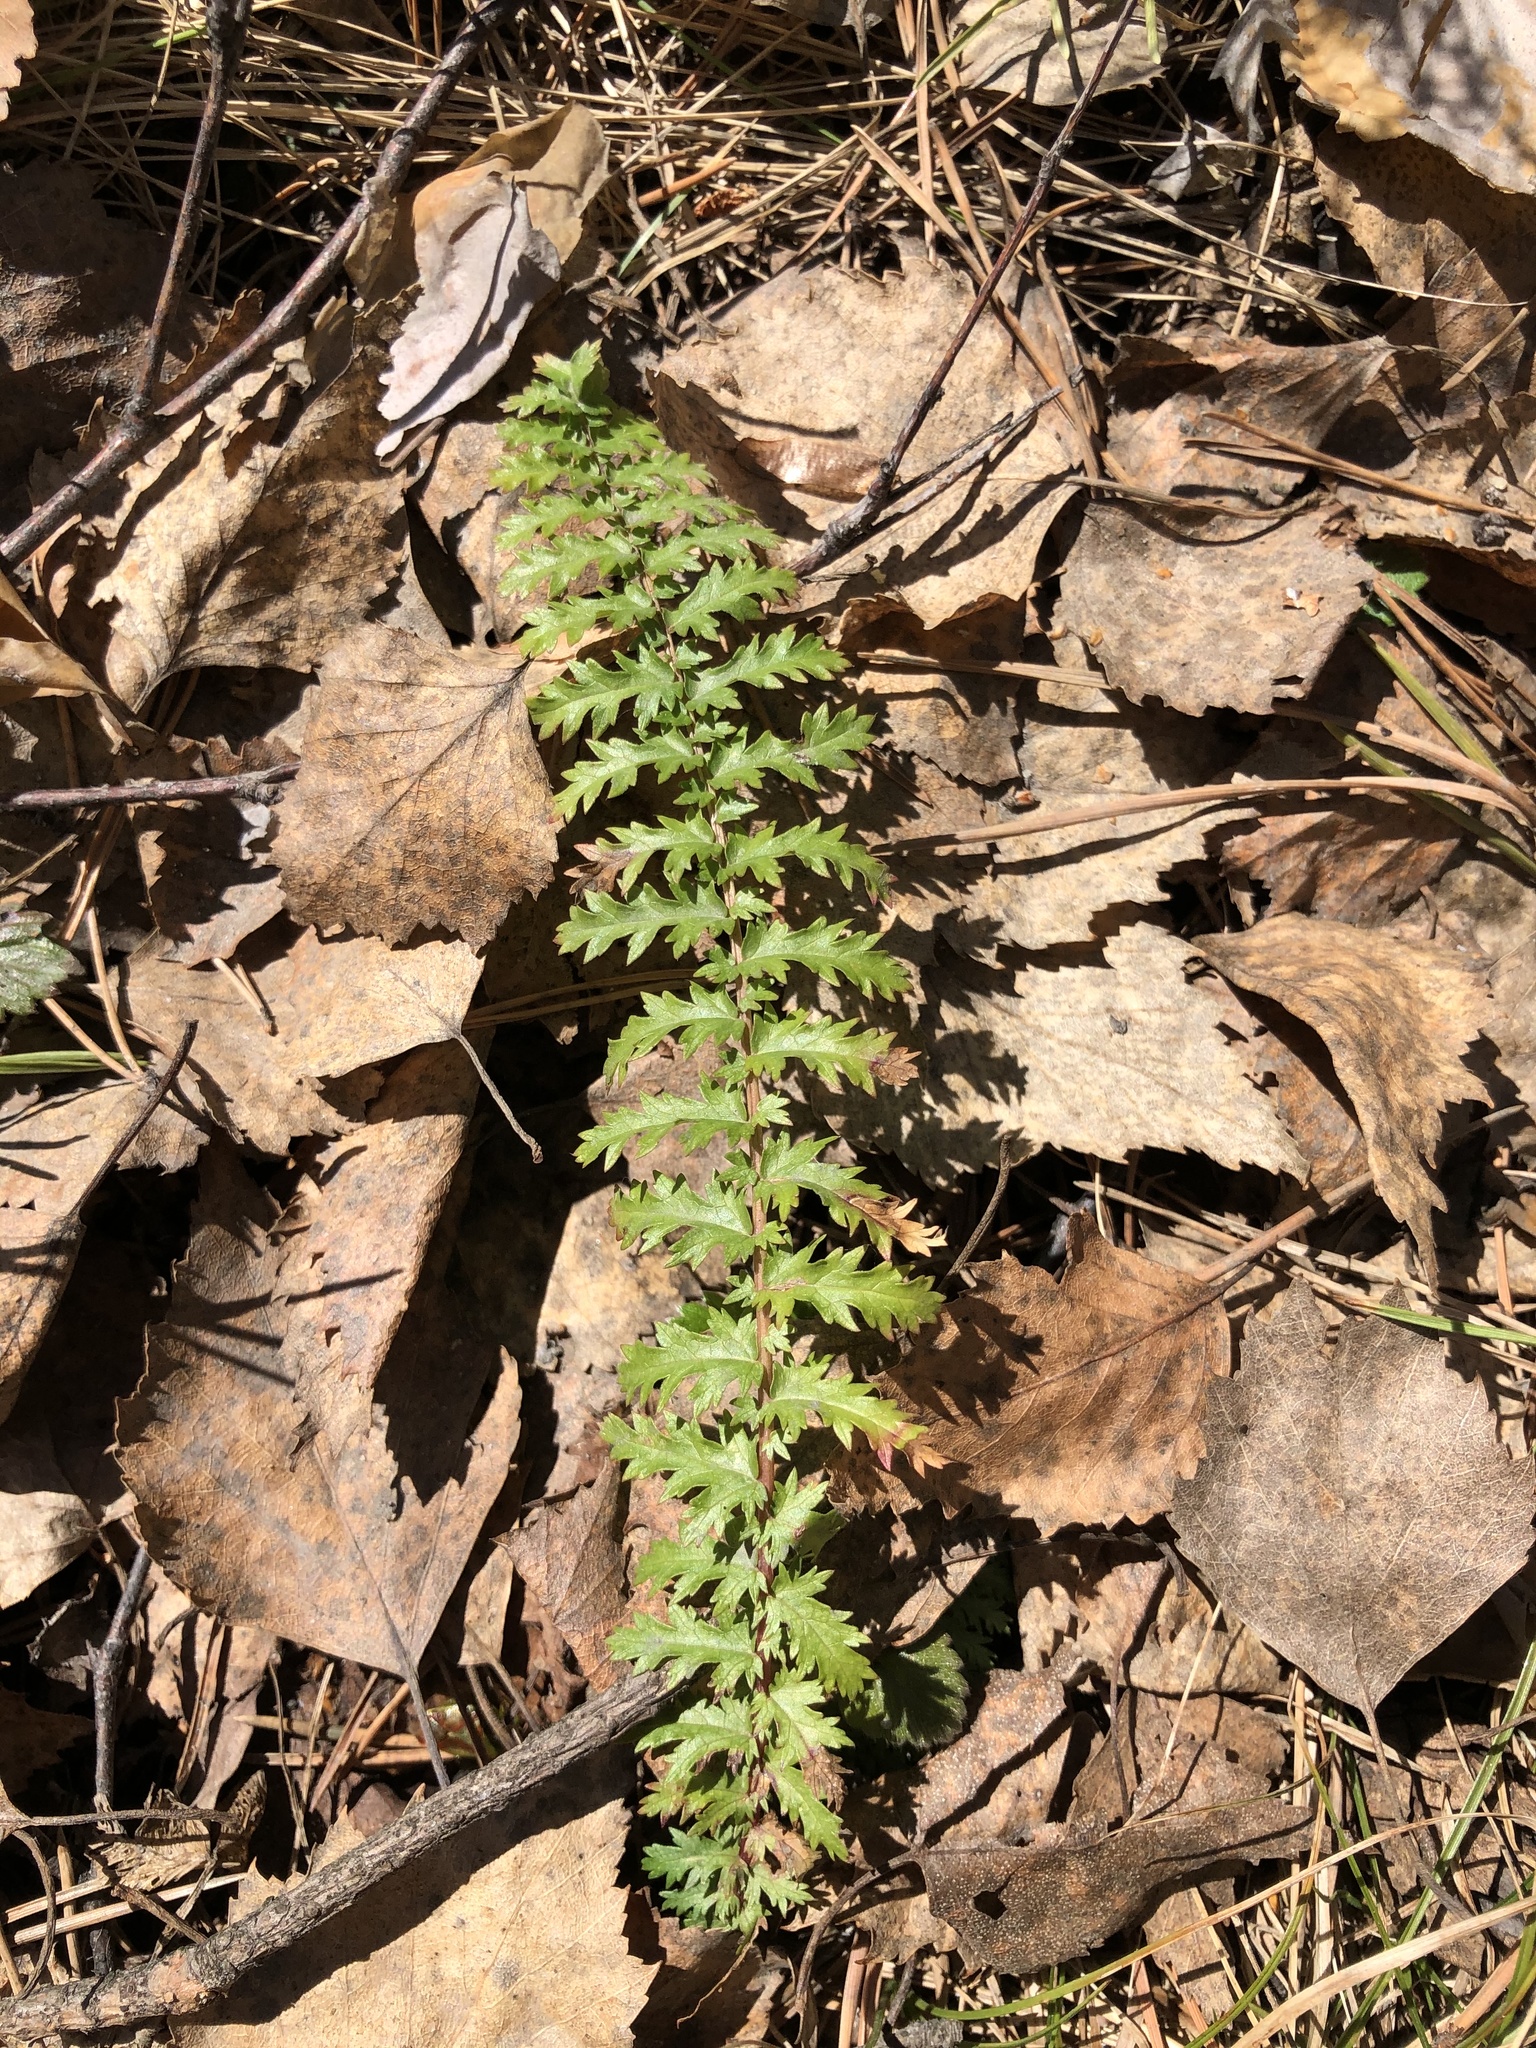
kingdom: Plantae
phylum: Tracheophyta
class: Magnoliopsida
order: Rosales
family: Rosaceae
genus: Filipendula
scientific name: Filipendula vulgaris
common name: Dropwort
